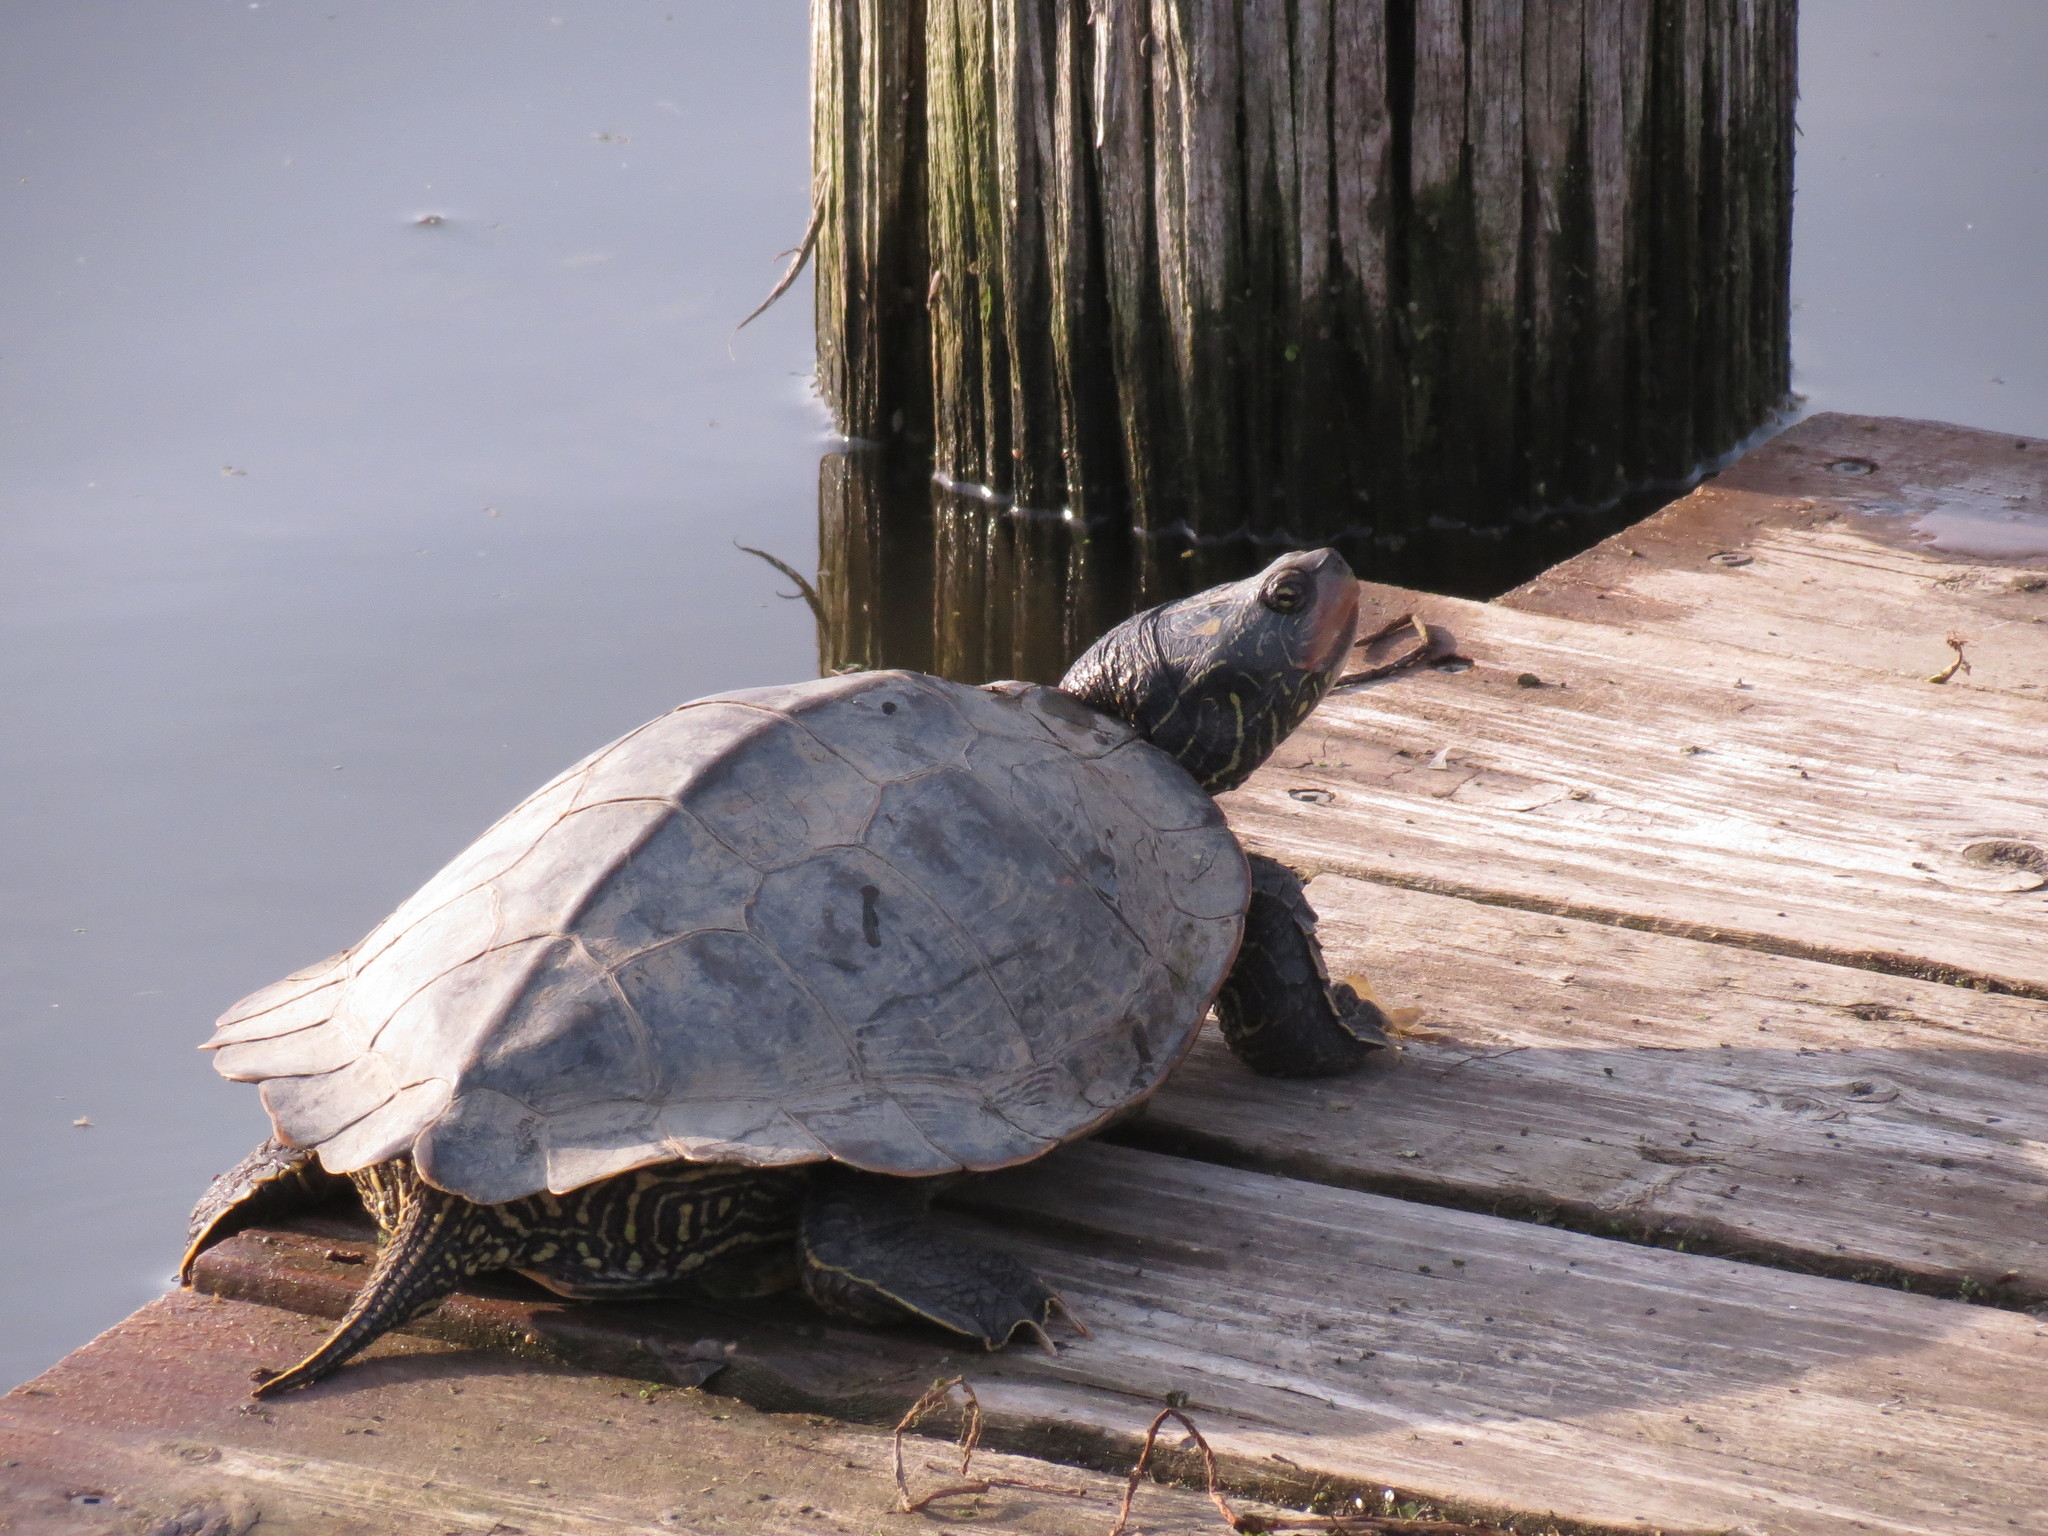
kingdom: Animalia
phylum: Chordata
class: Testudines
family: Emydidae
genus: Graptemys
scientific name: Graptemys geographica
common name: Common map turtle
